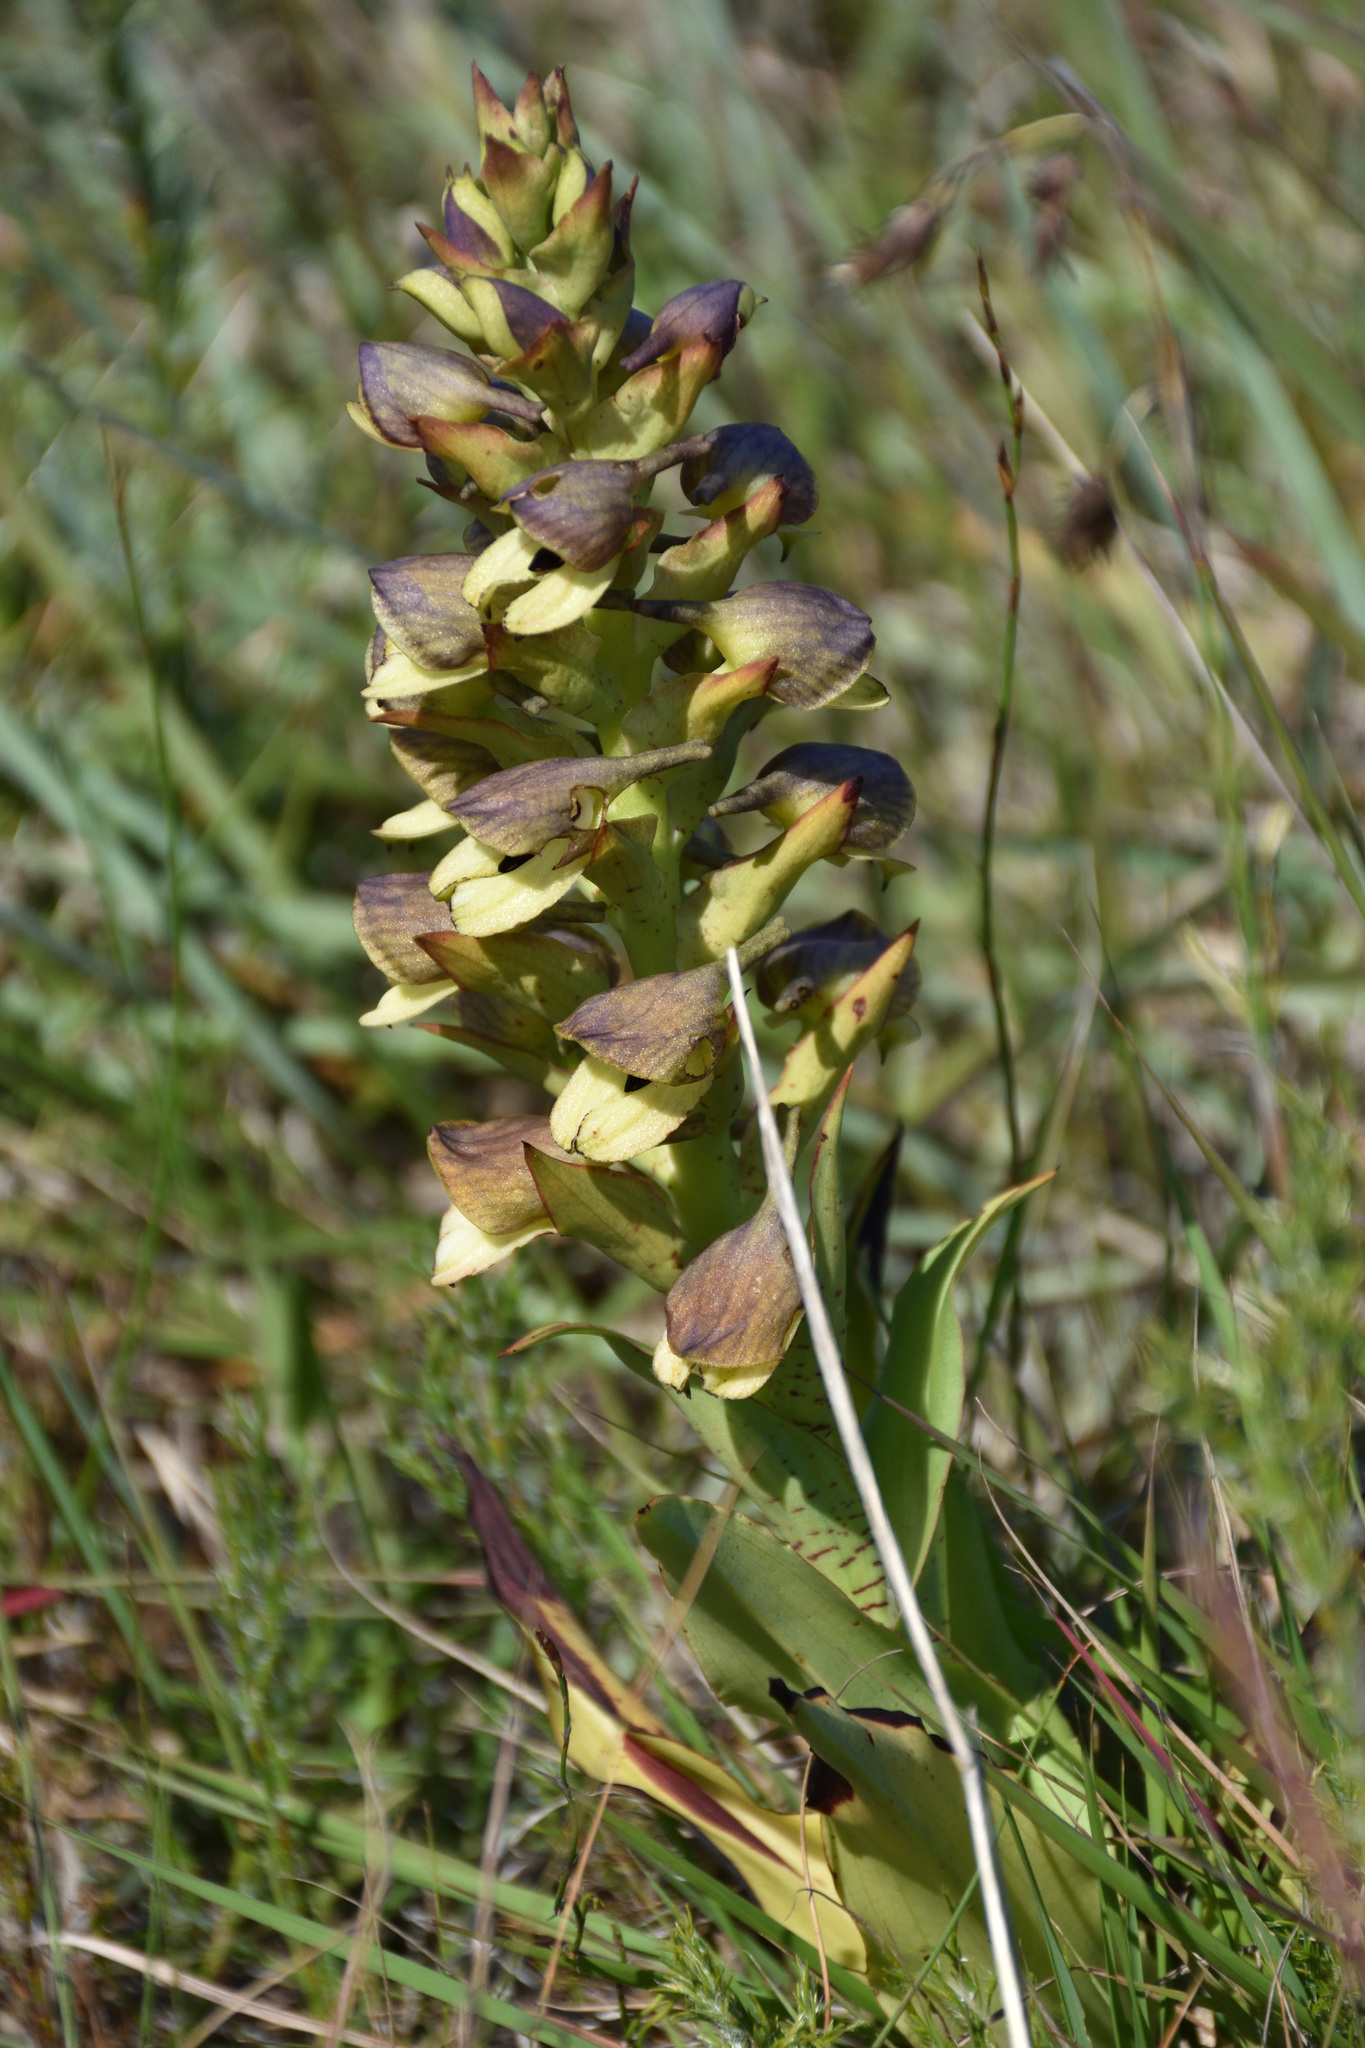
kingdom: Plantae
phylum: Tracheophyta
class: Liliopsida
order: Asparagales
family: Orchidaceae
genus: Disa
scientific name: Disa cornuta
